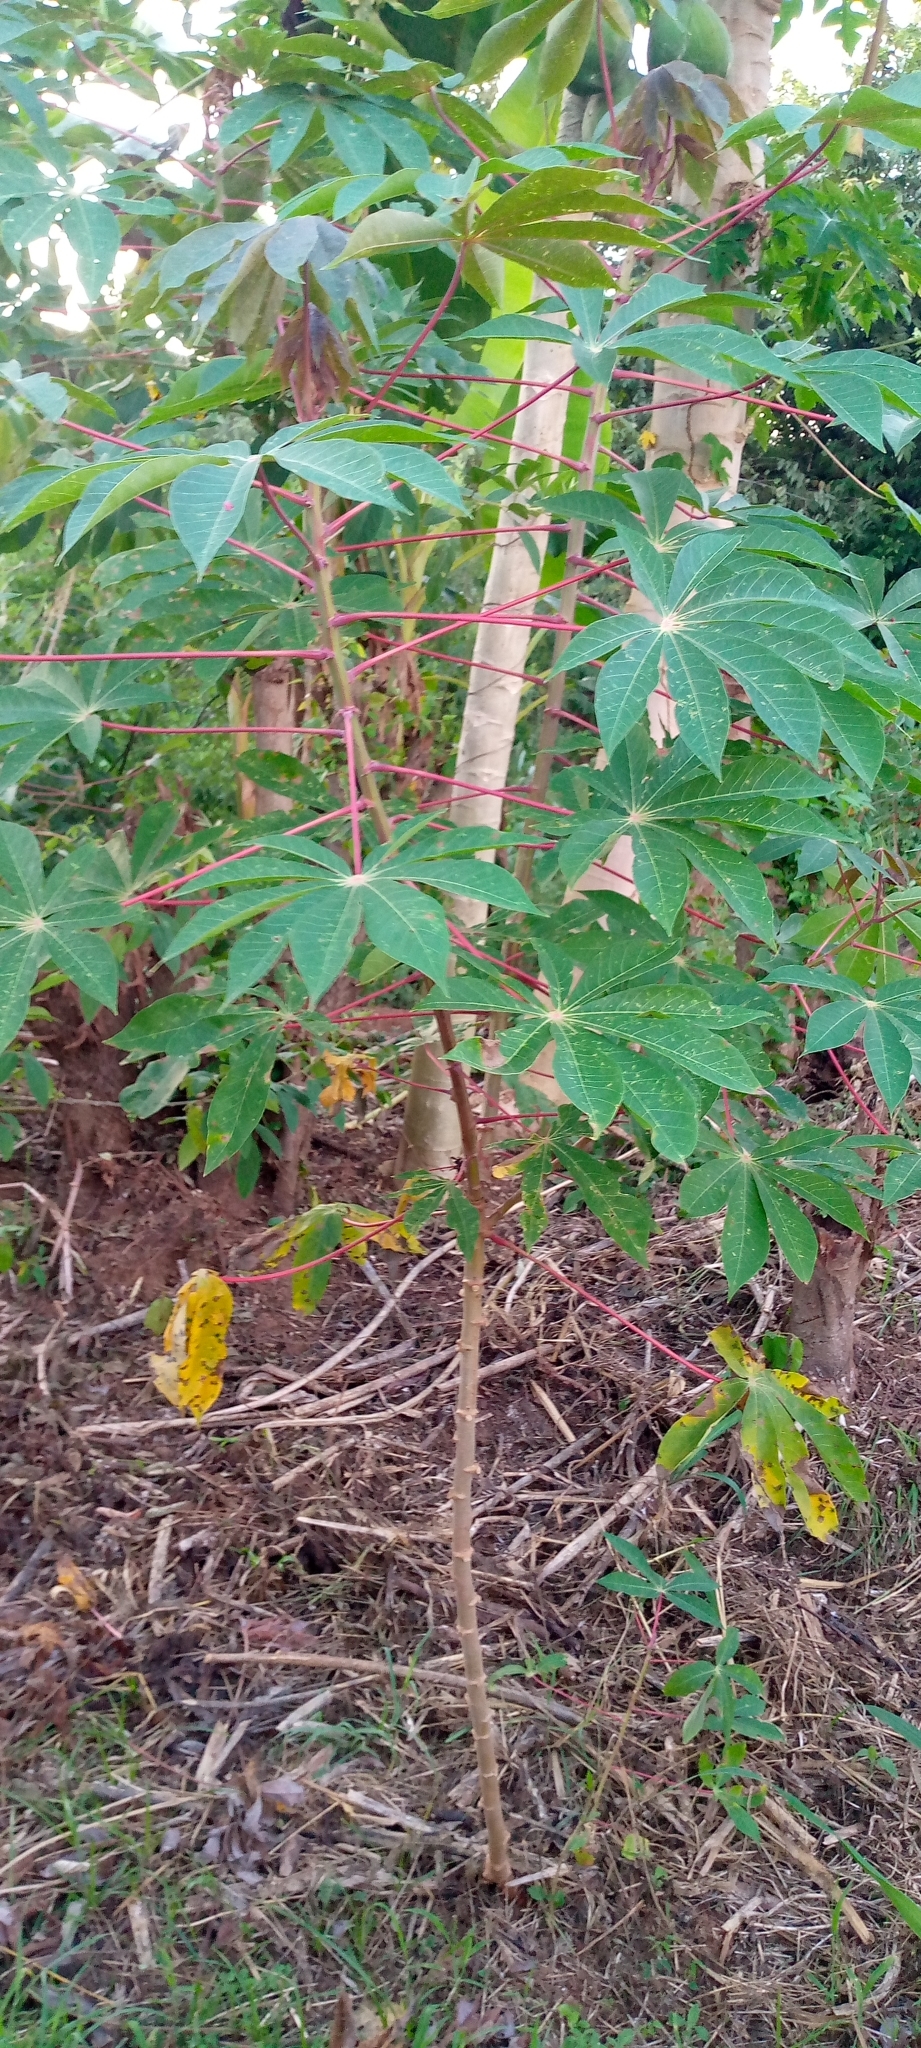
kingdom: Plantae
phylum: Tracheophyta
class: Magnoliopsida
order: Malpighiales
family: Euphorbiaceae
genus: Manihot
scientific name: Manihot esculenta
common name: Cassava
